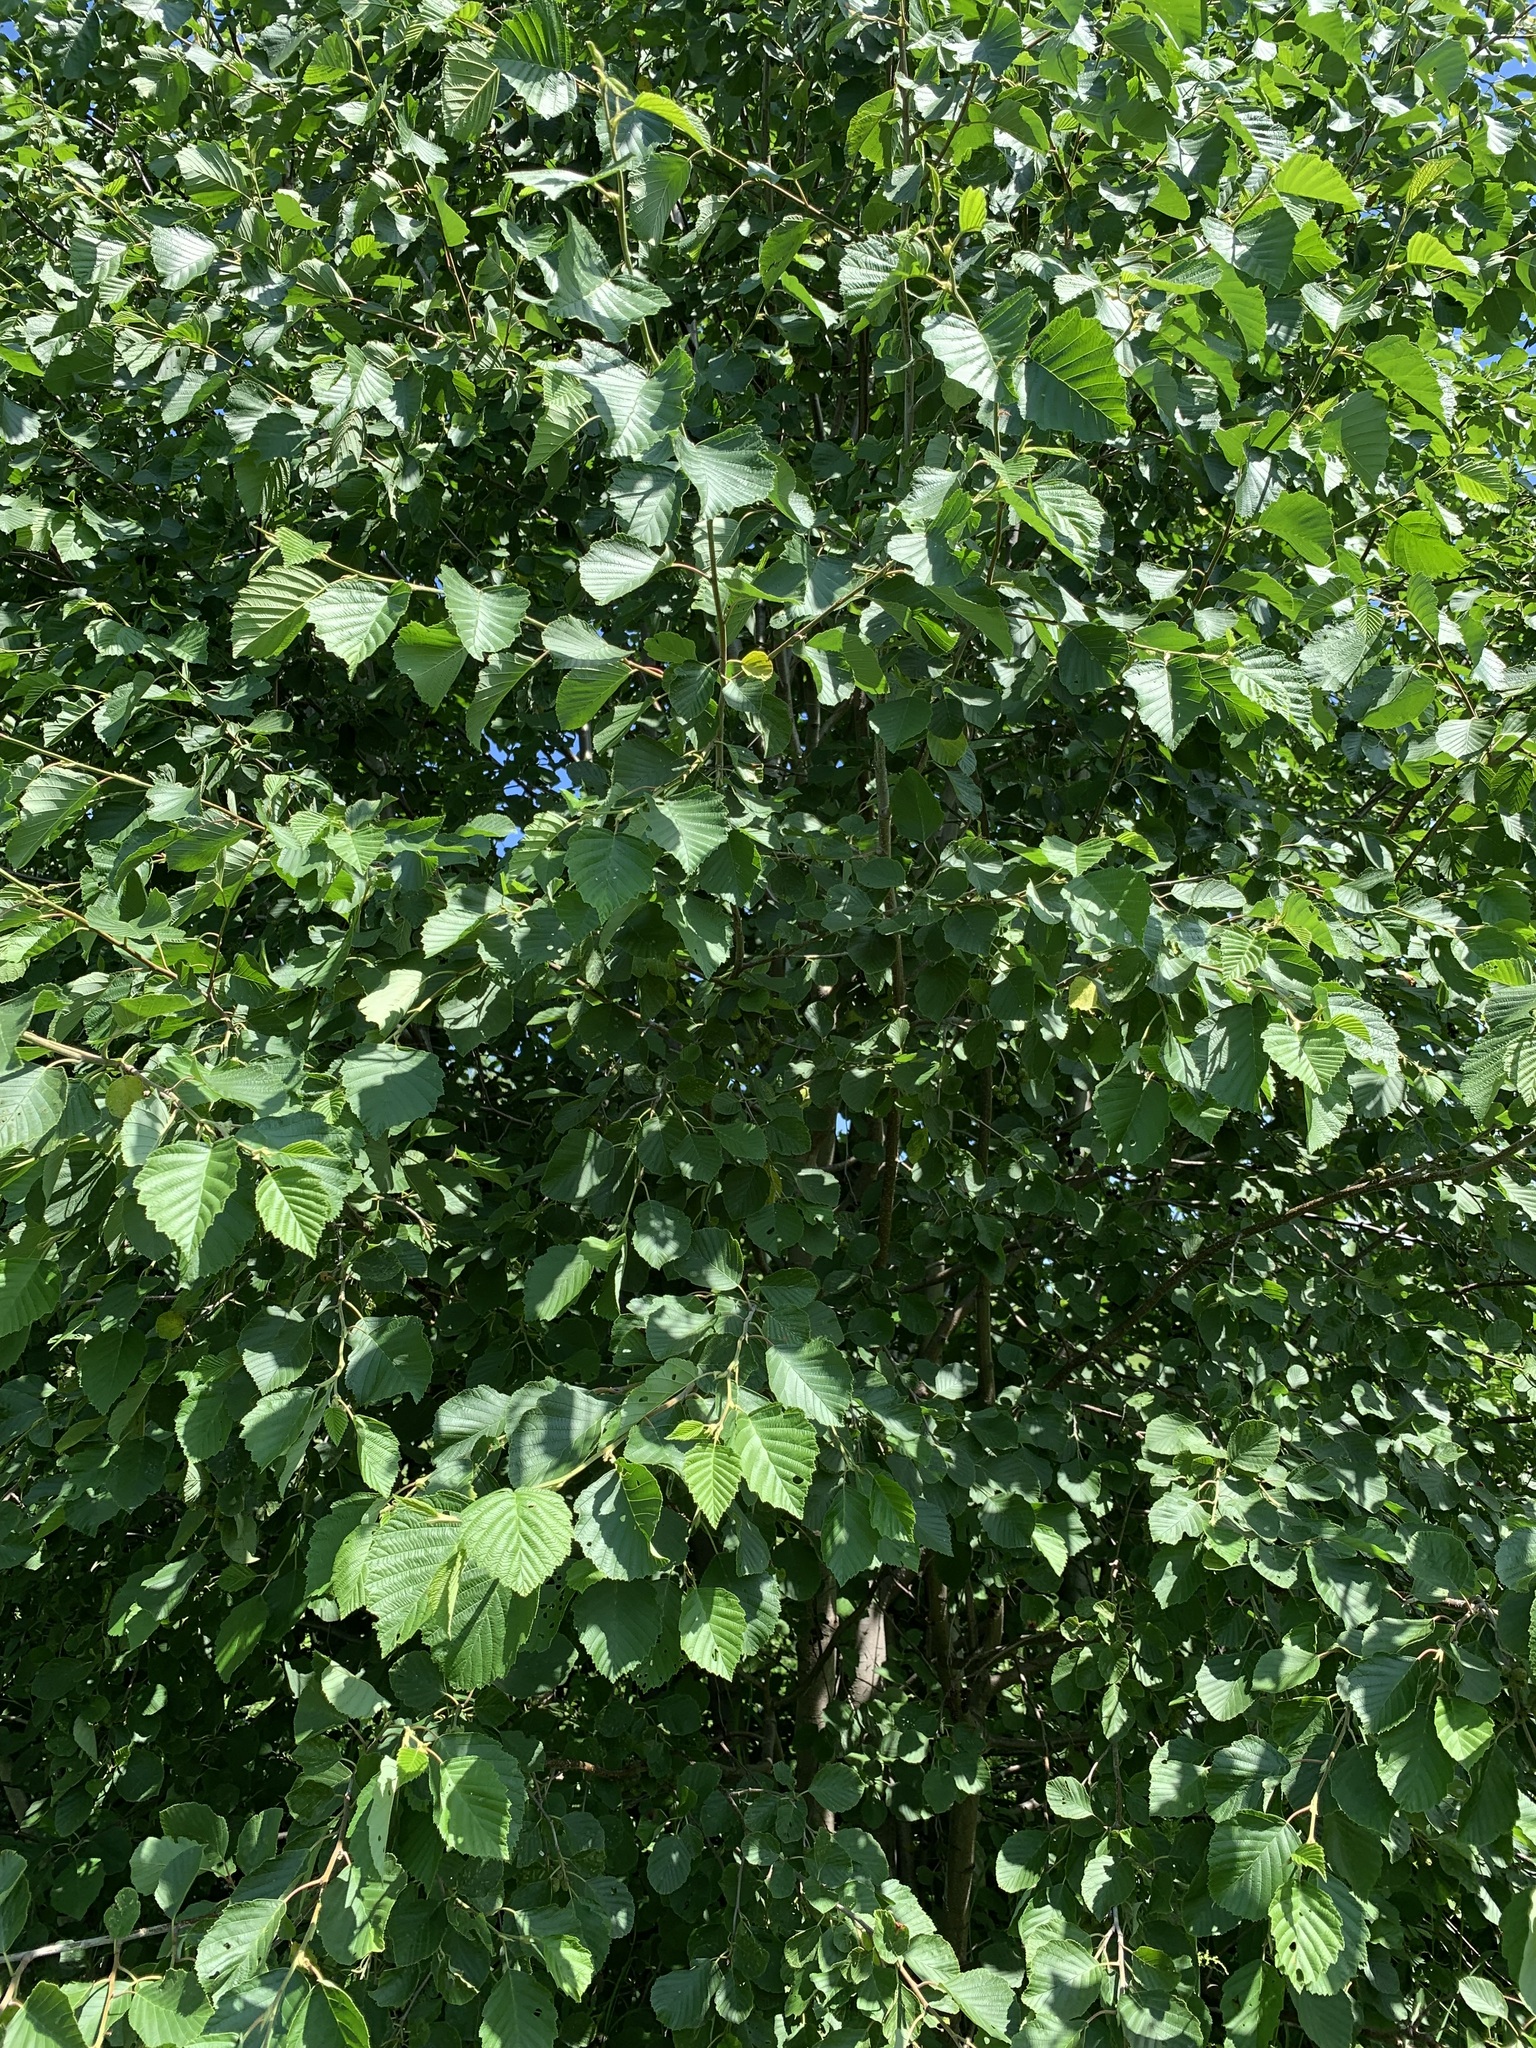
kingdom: Plantae
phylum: Tracheophyta
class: Magnoliopsida
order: Fagales
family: Betulaceae
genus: Alnus
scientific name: Alnus incana
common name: Grey alder
